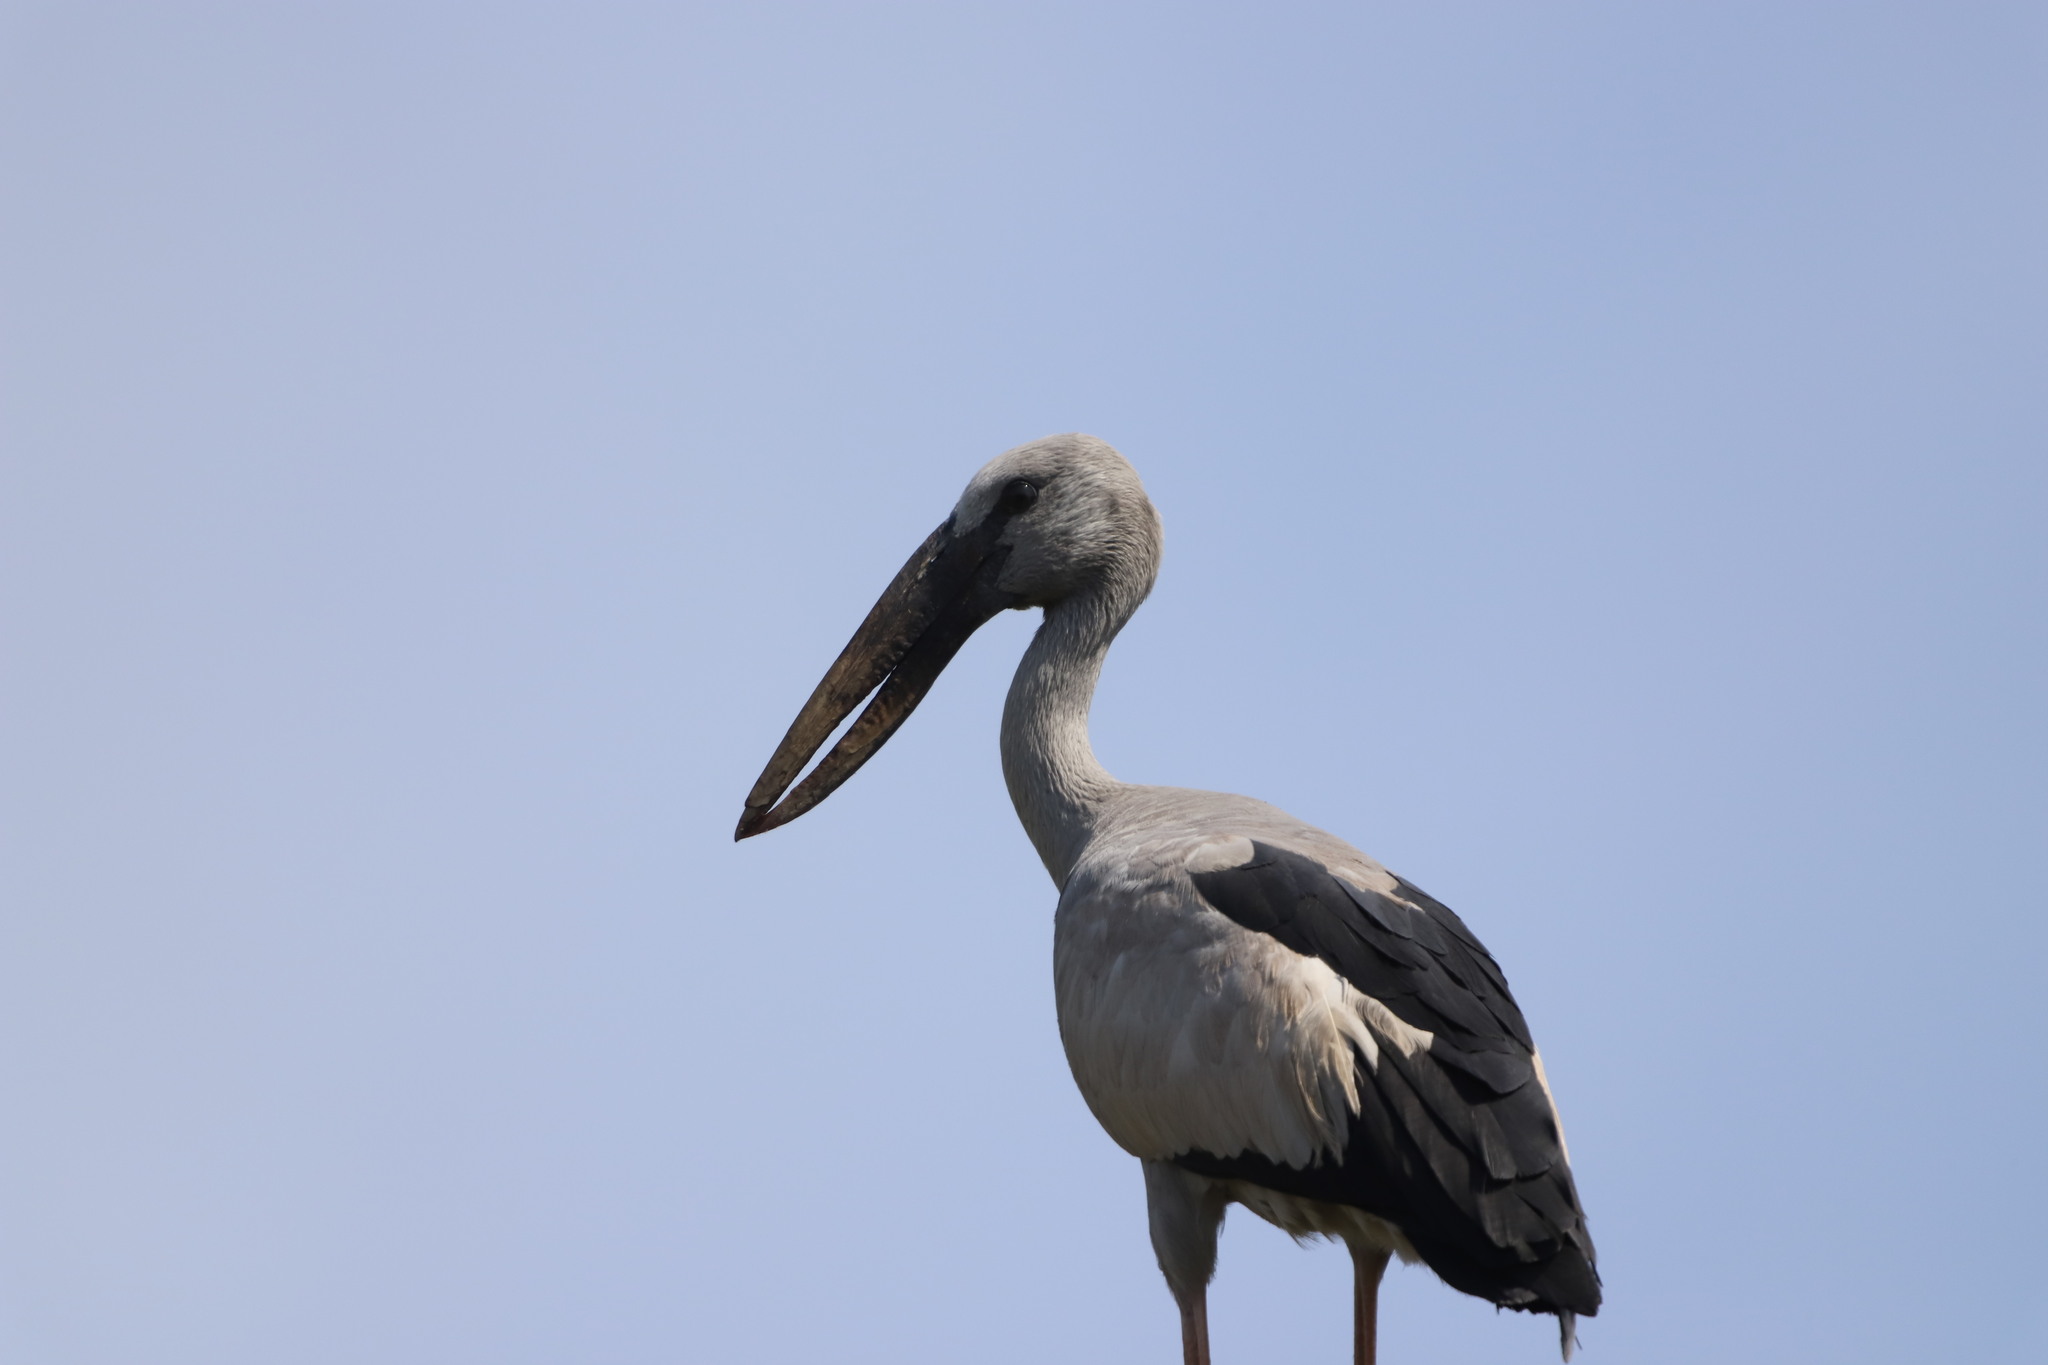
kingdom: Animalia
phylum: Chordata
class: Aves
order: Ciconiiformes
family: Ciconiidae
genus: Anastomus
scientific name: Anastomus oscitans
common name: Asian openbill
